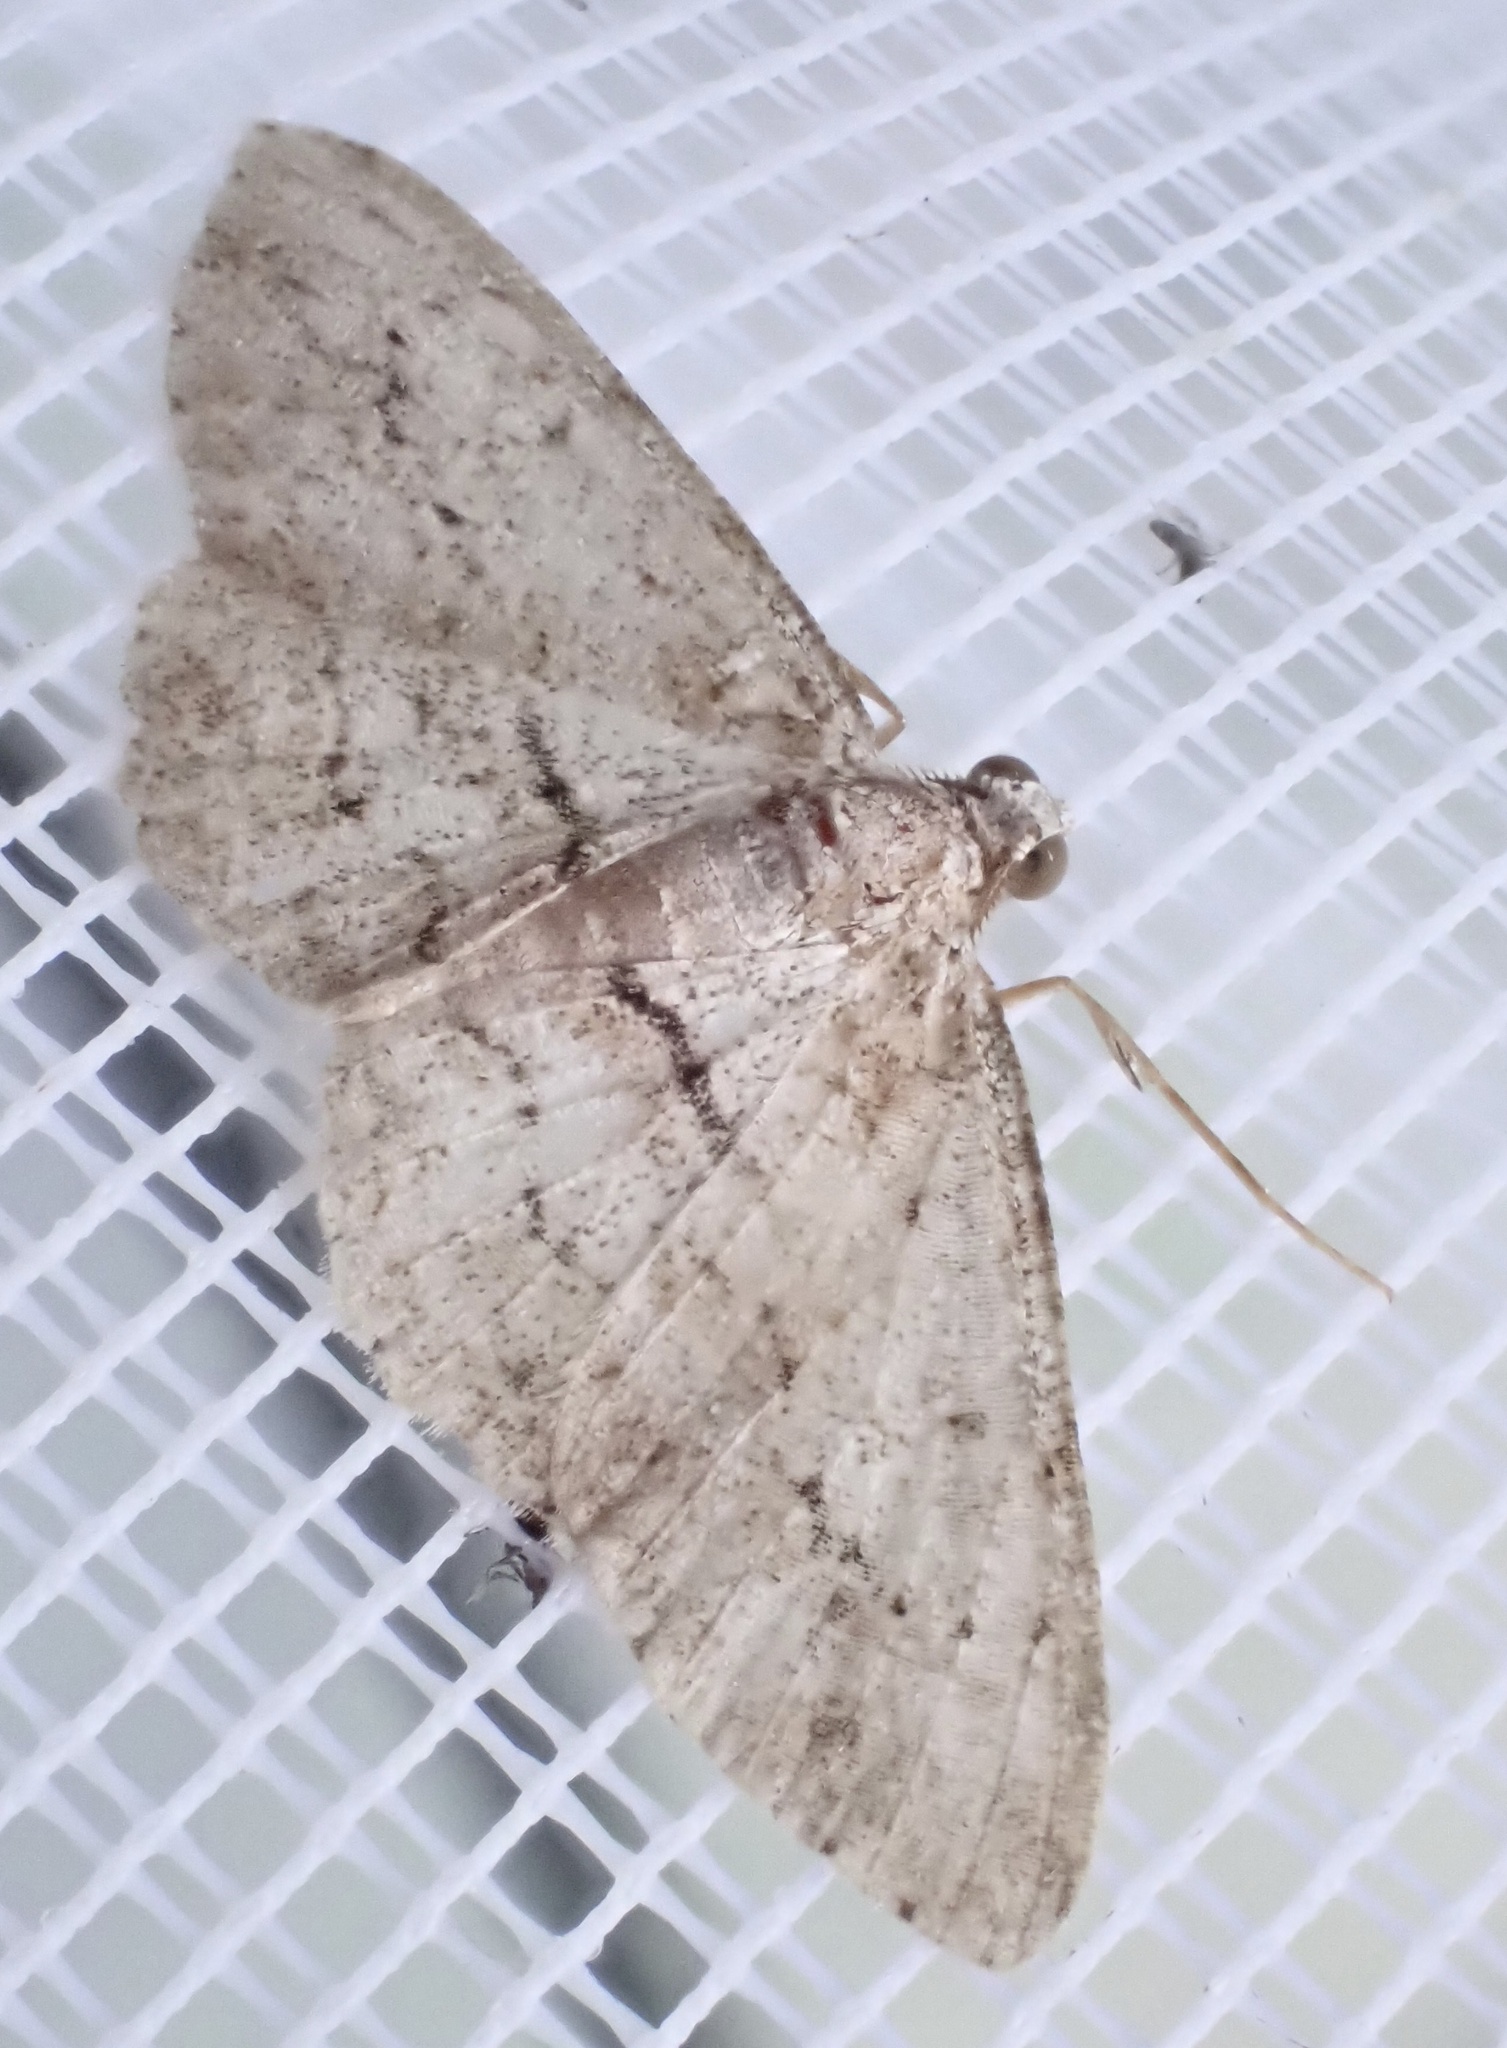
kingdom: Animalia
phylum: Arthropoda
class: Insecta
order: Lepidoptera
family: Geometridae
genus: Didymoctenia
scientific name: Didymoctenia exsuperata
